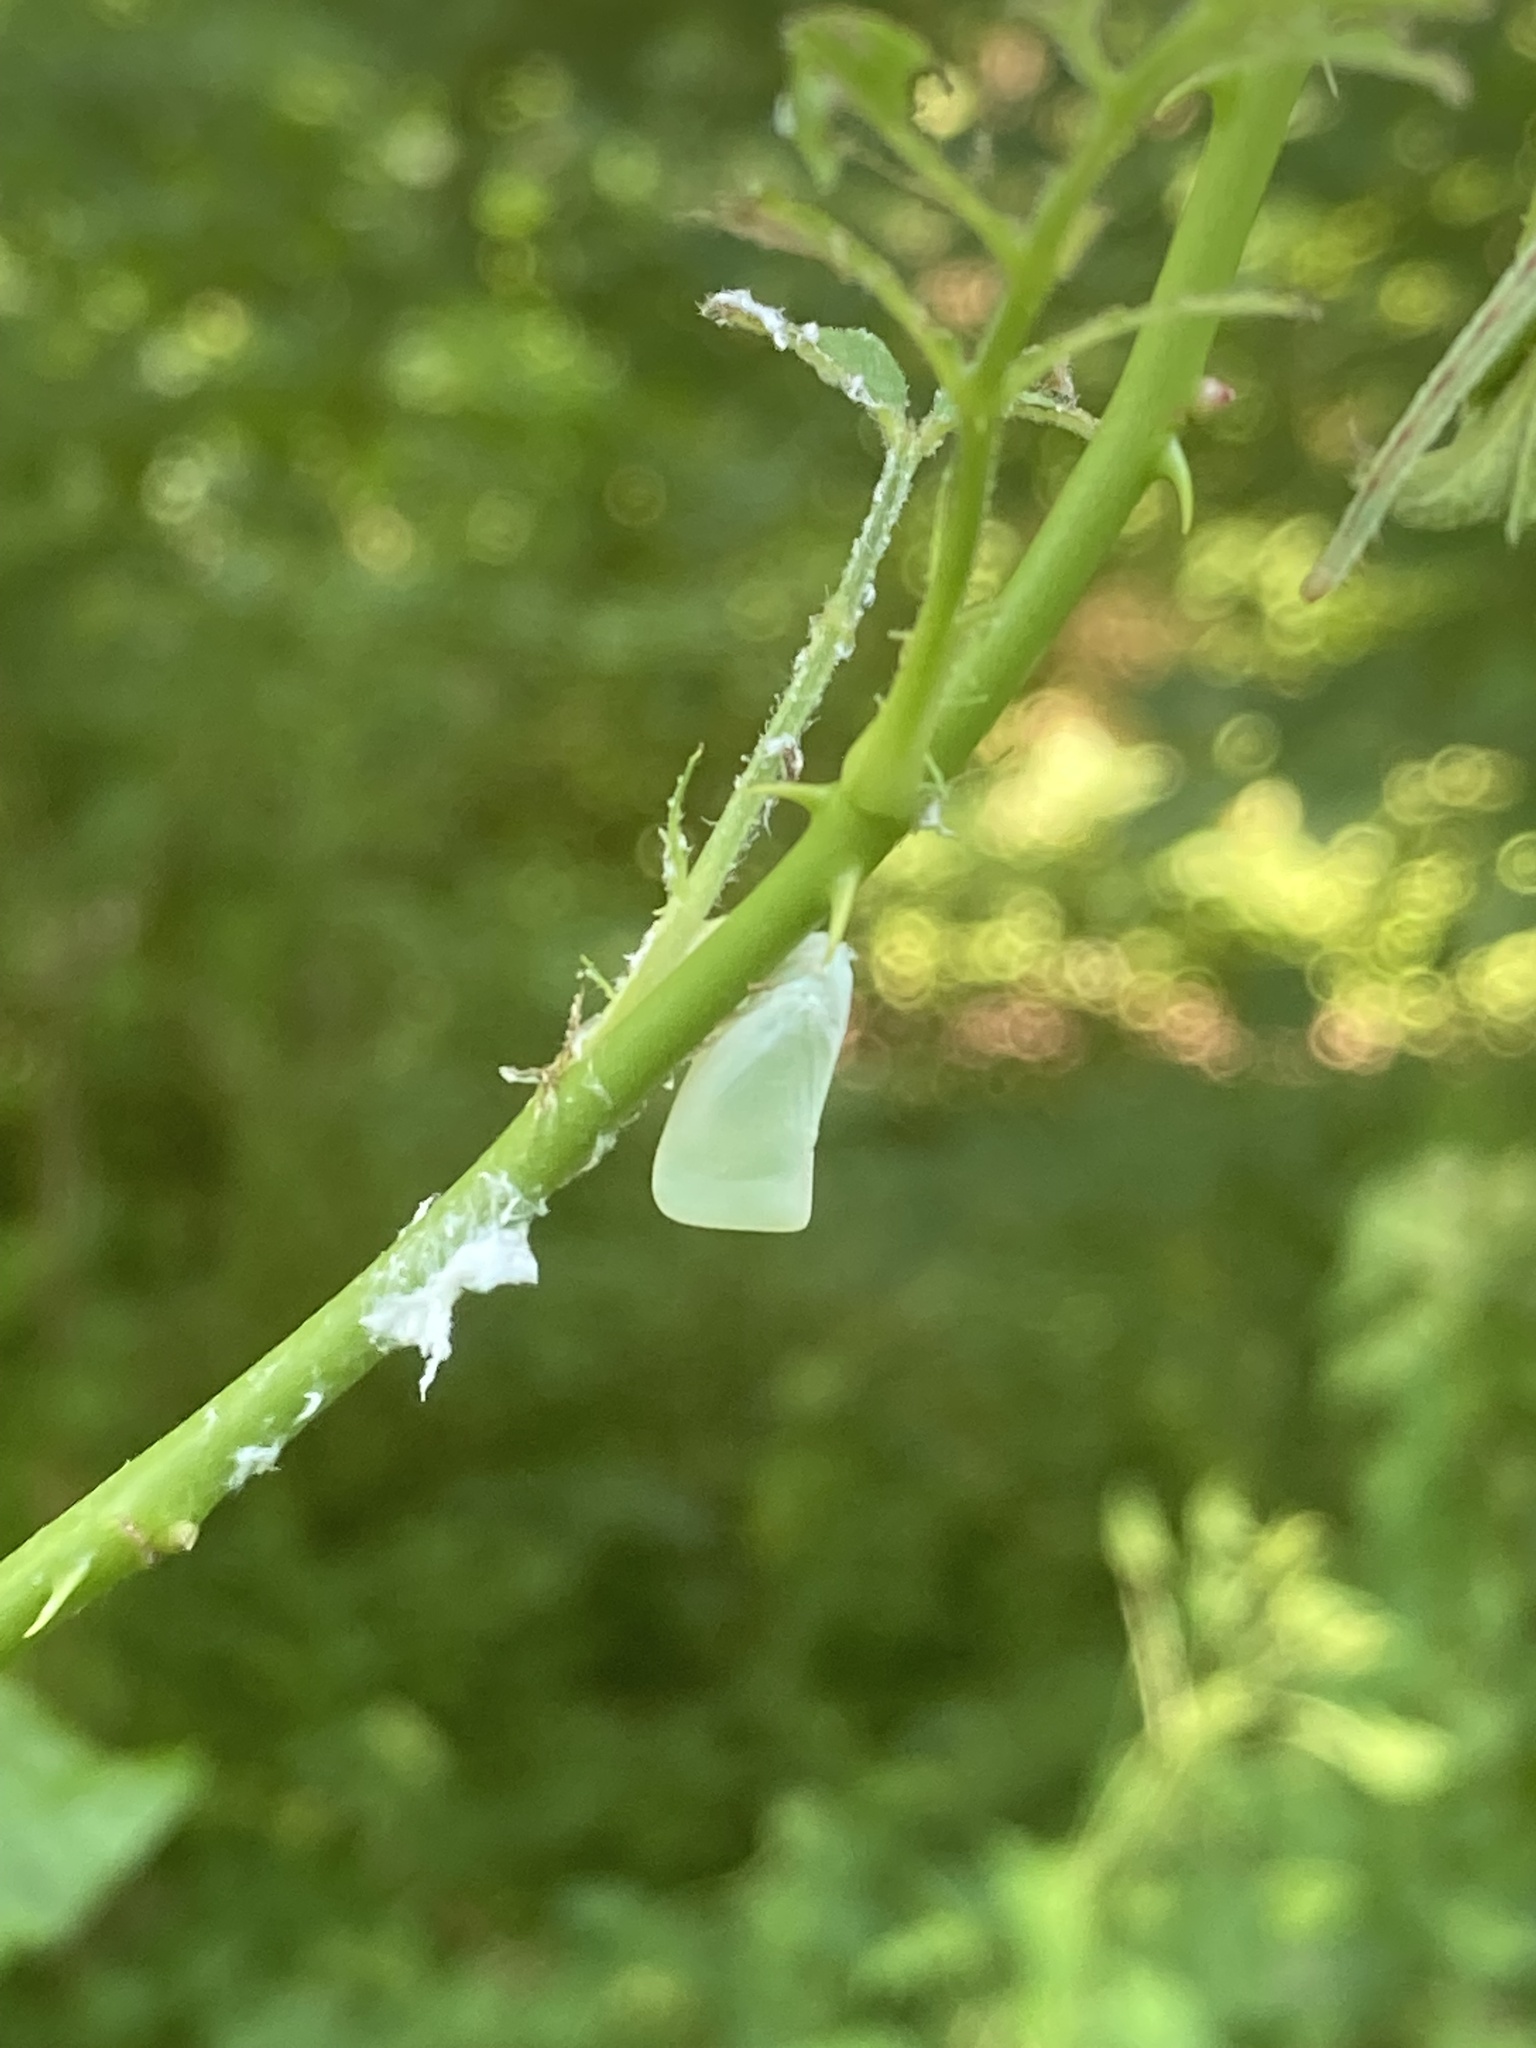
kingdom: Animalia
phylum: Arthropoda
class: Insecta
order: Hemiptera
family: Flatidae
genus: Flatormenis
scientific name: Flatormenis proxima
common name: Northern flatid planthopper
